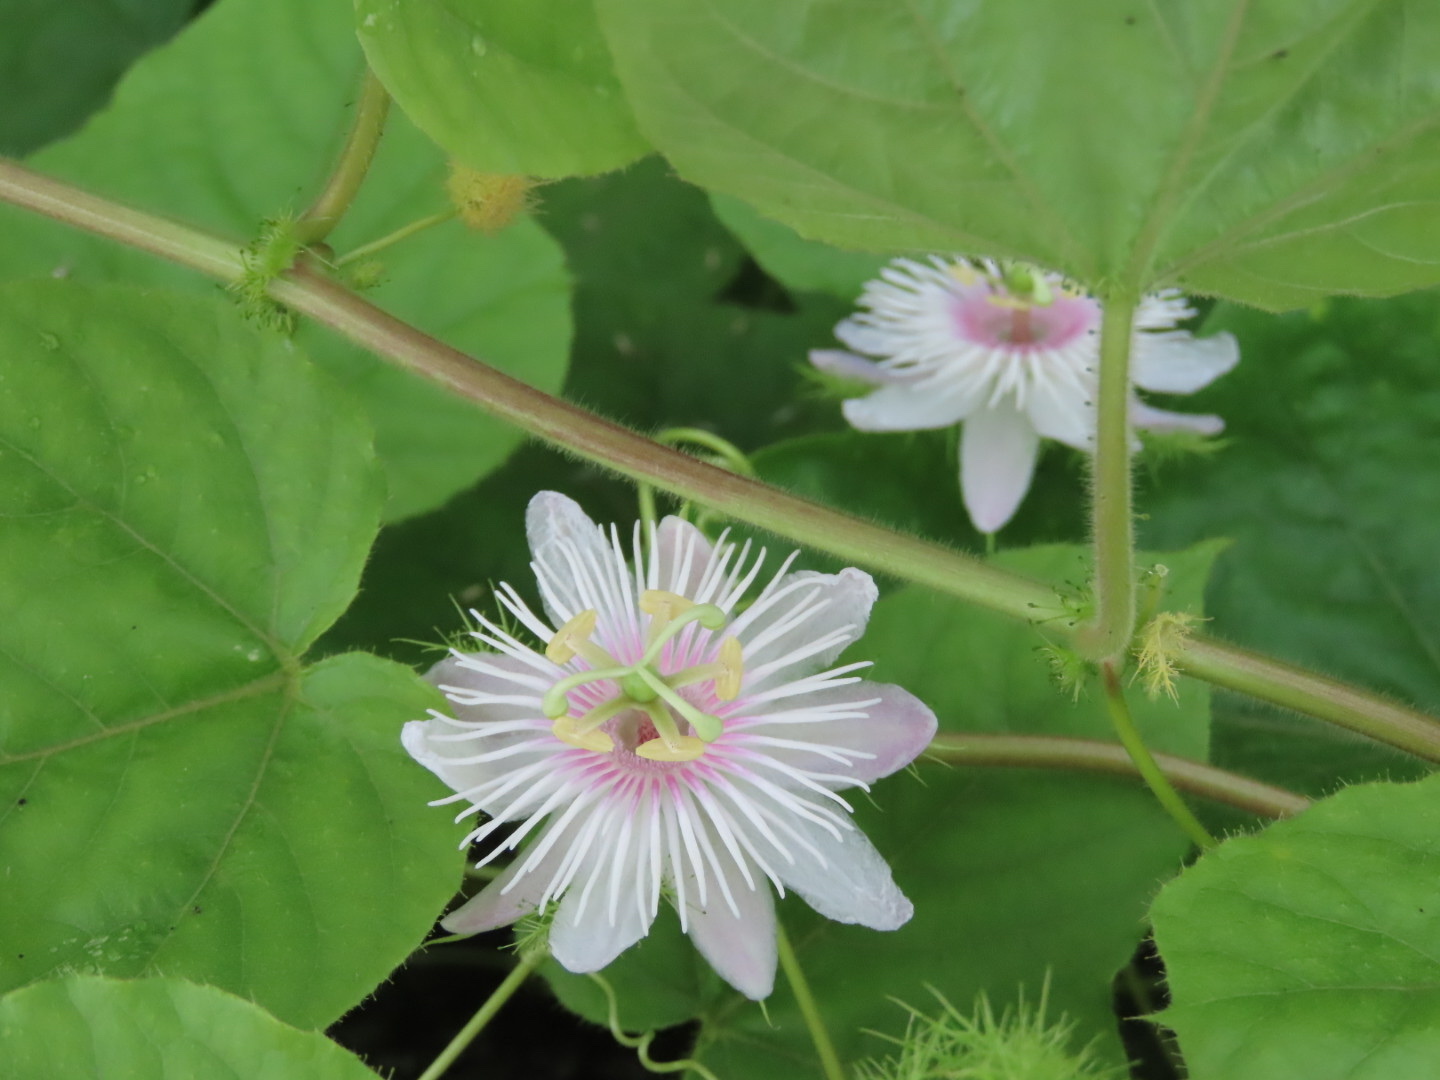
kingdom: Plantae
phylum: Tracheophyta
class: Magnoliopsida
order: Malpighiales
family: Passifloraceae
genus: Passiflora
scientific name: Passiflora vesicaria
